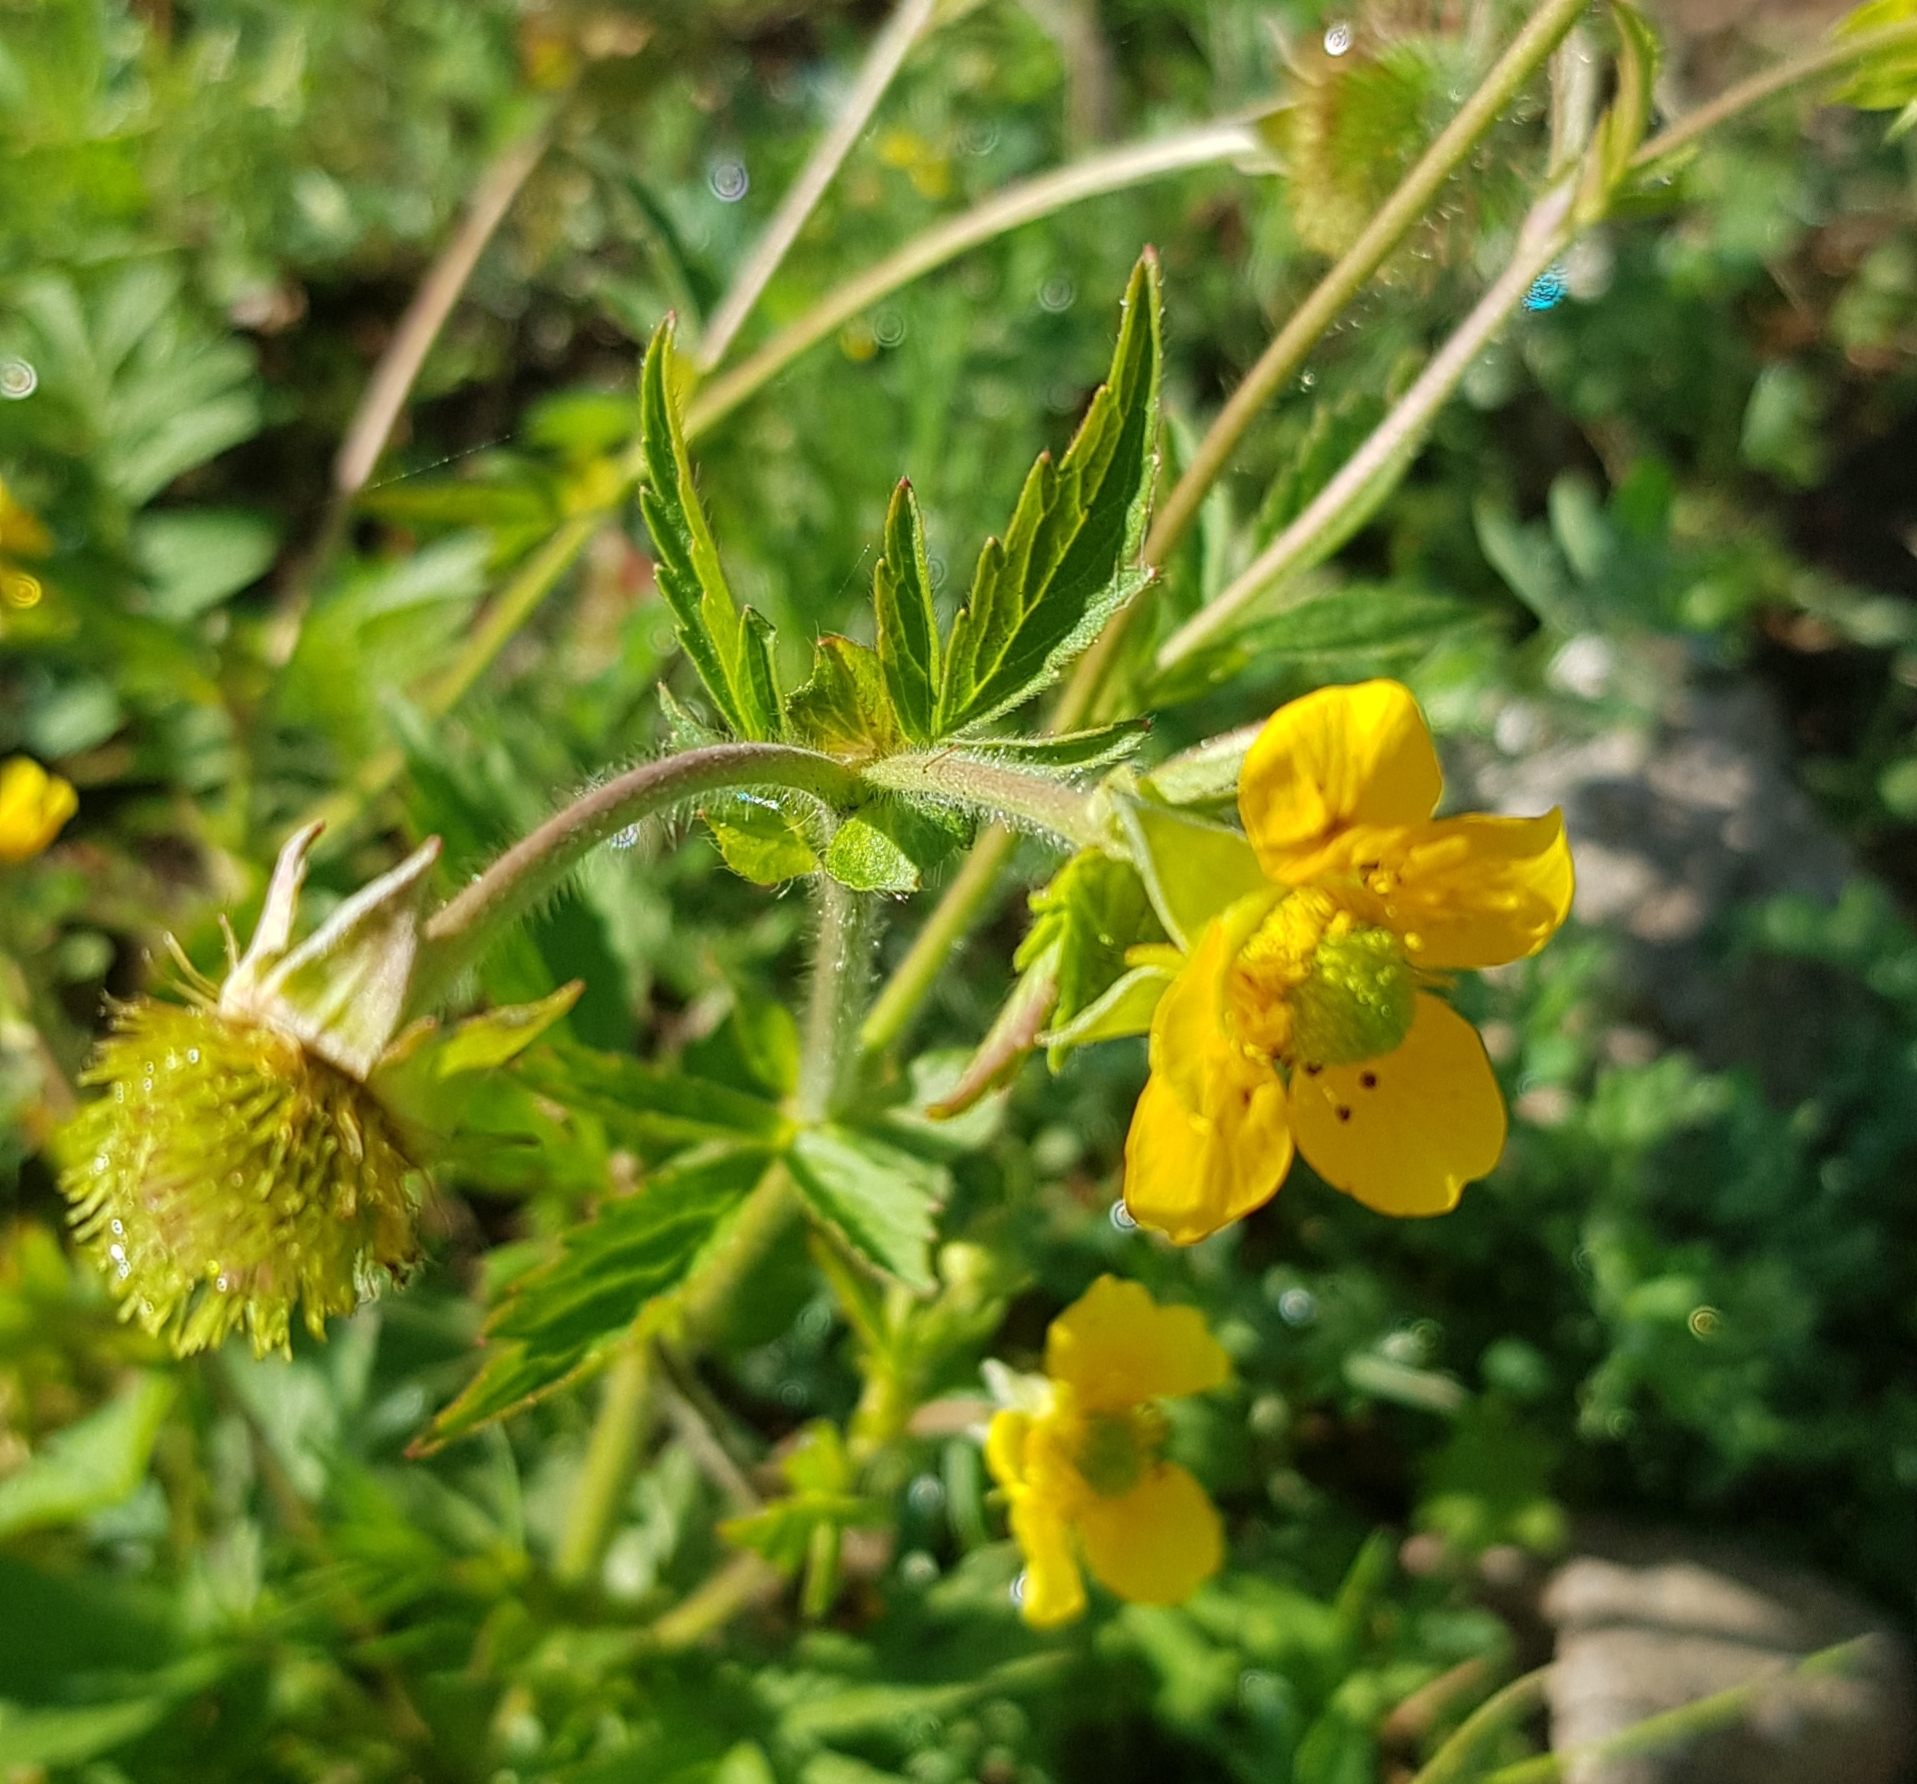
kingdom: Plantae
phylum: Tracheophyta
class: Magnoliopsida
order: Rosales
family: Rosaceae
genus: Geum
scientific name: Geum aleppicum
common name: Yellow avens
